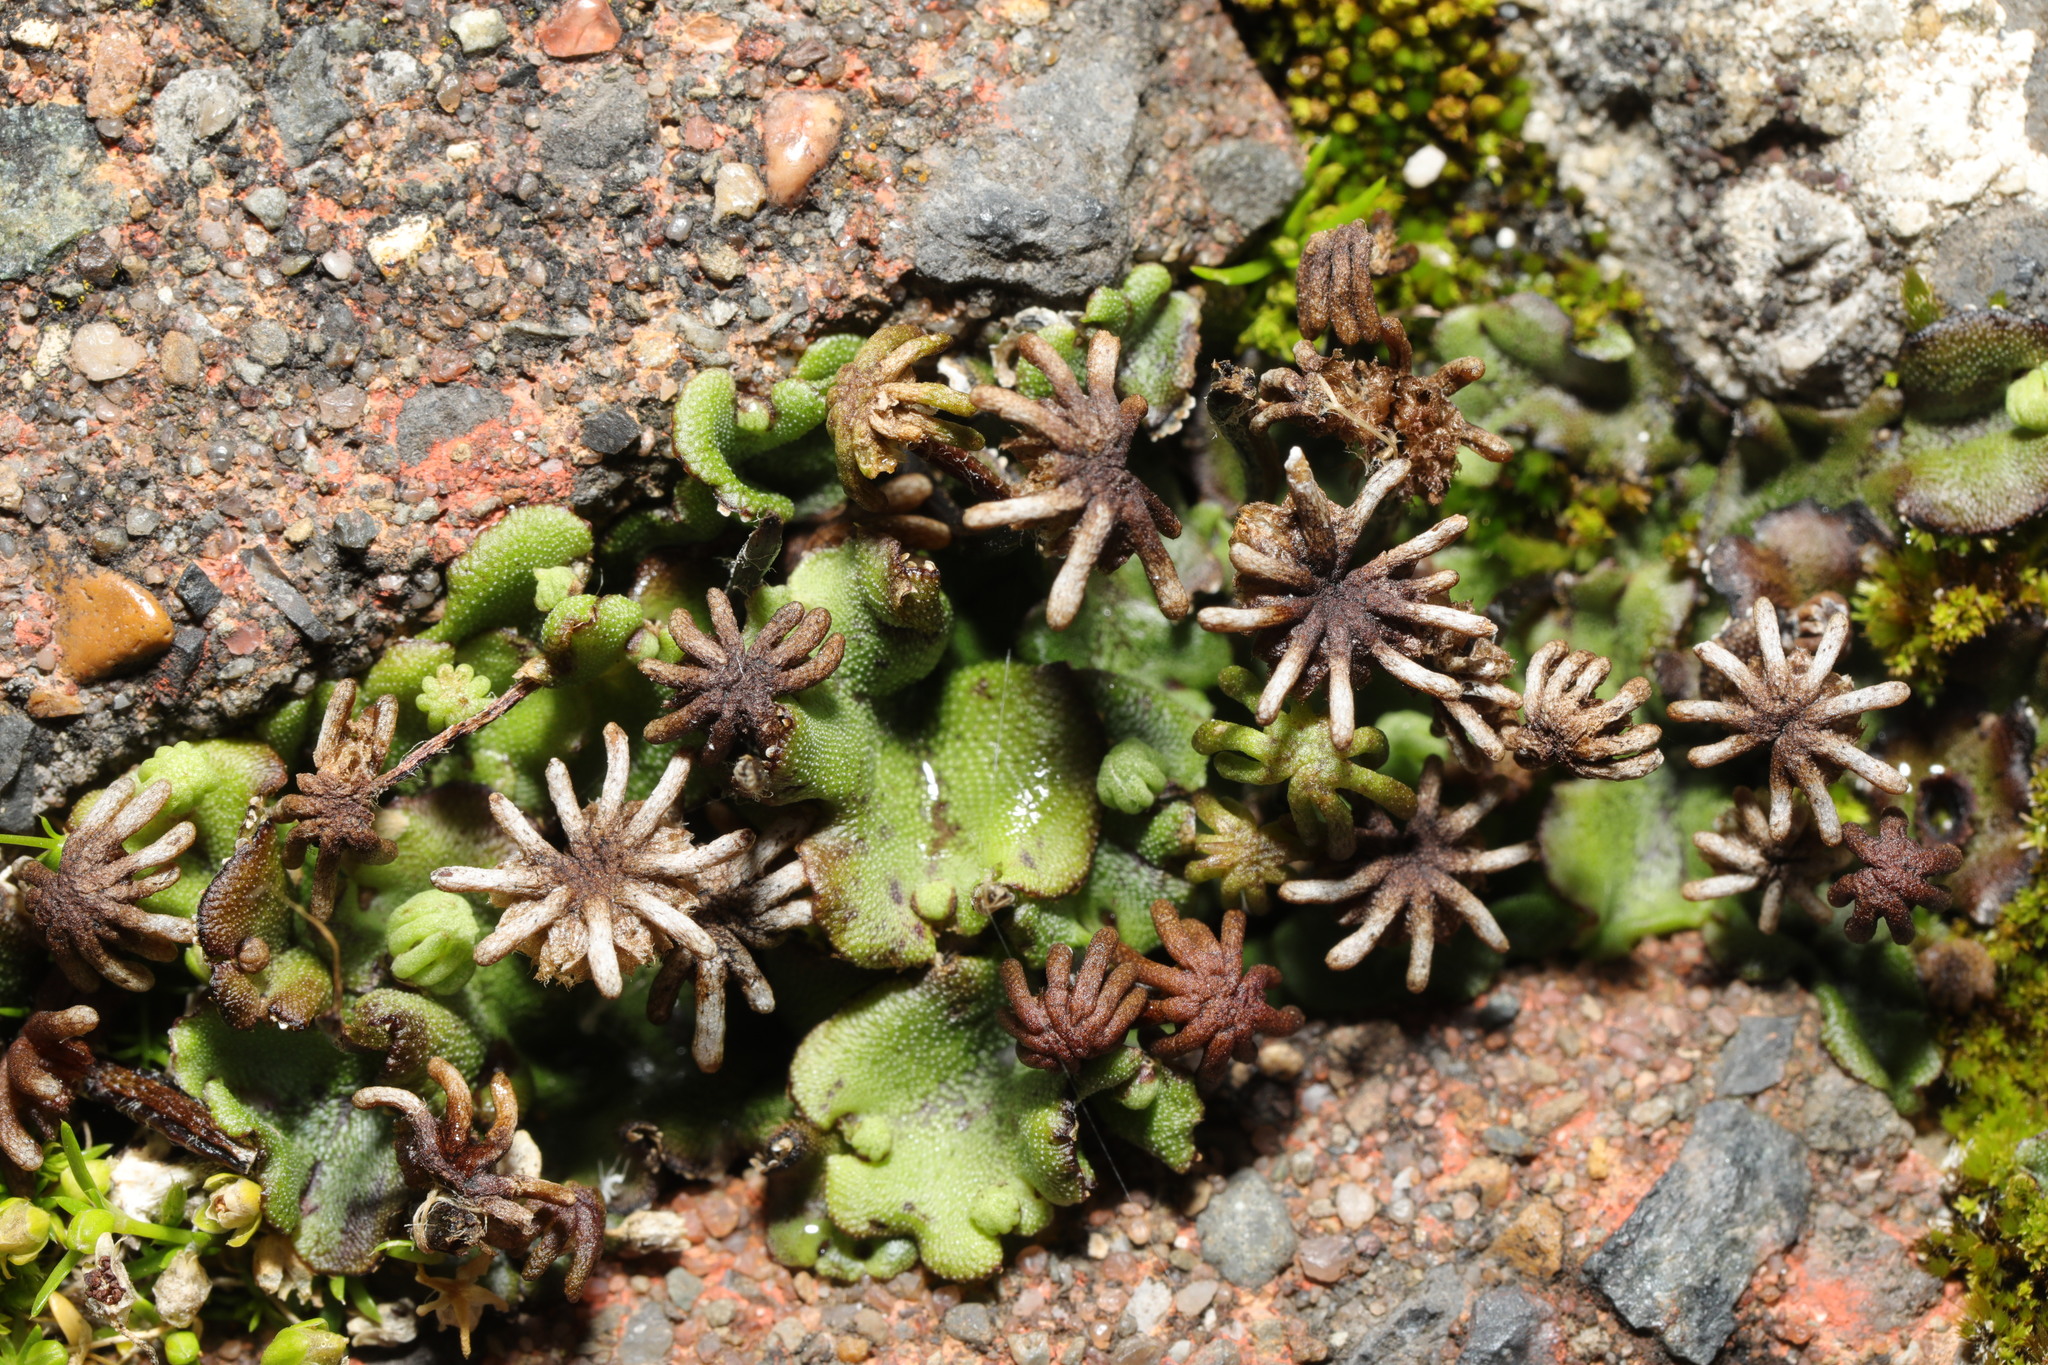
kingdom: Plantae
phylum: Marchantiophyta
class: Marchantiopsida
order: Marchantiales
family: Marchantiaceae
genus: Marchantia
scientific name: Marchantia polymorpha
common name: Common liverwort
